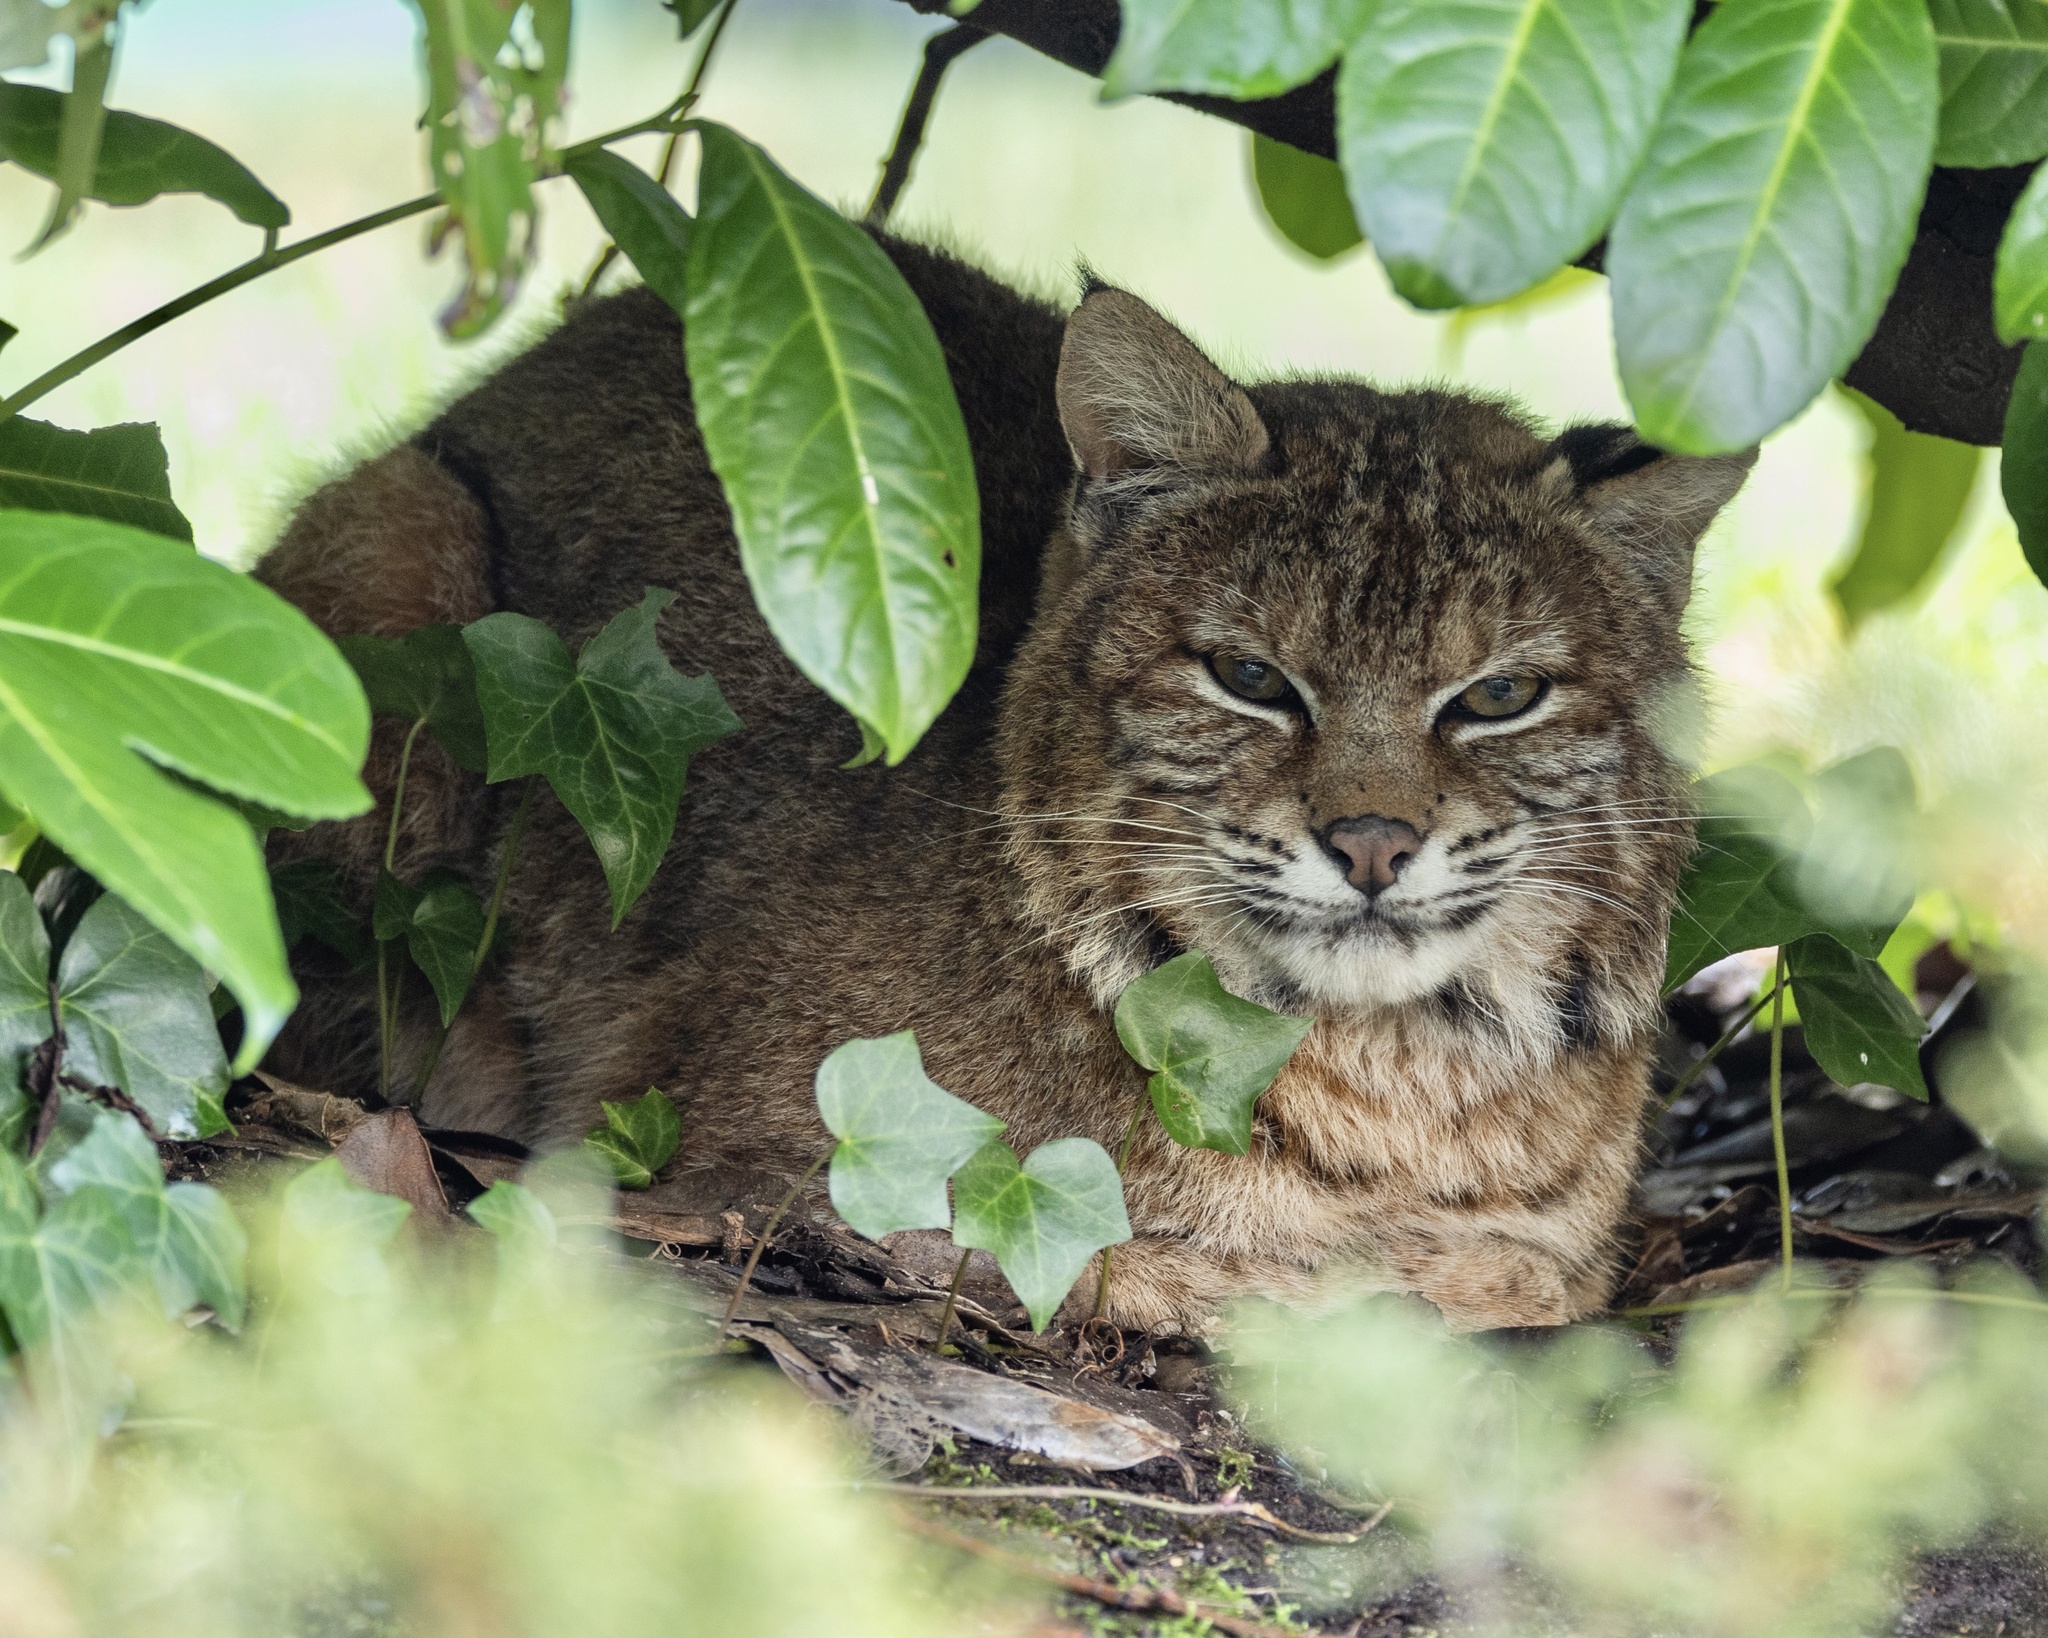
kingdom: Animalia
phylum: Chordata
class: Mammalia
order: Carnivora
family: Felidae
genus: Lynx
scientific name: Lynx rufus
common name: Bobcat
